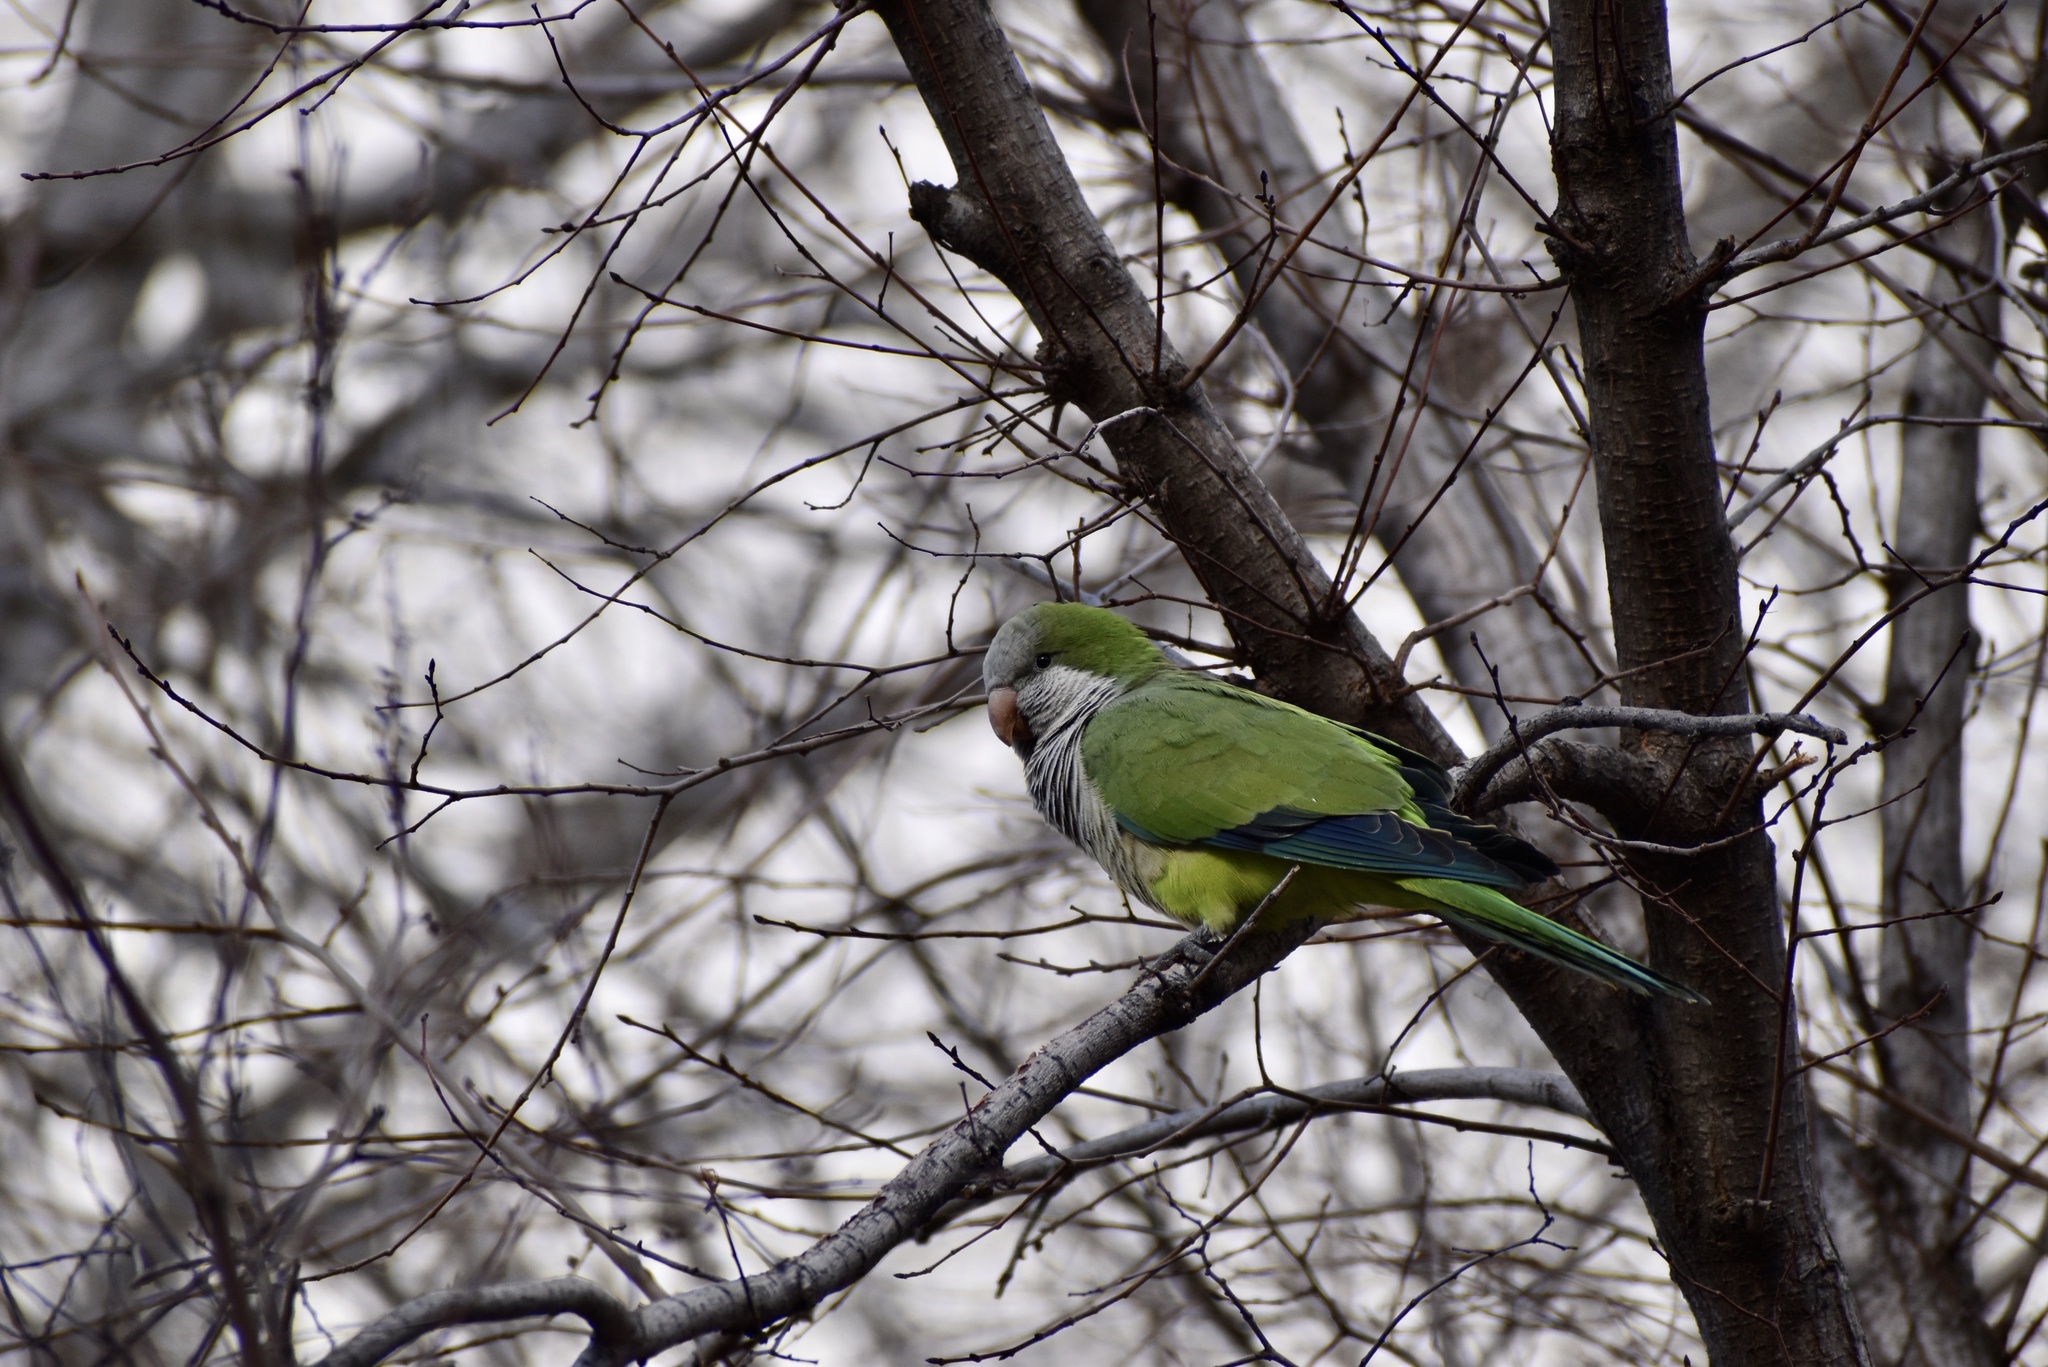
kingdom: Animalia
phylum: Chordata
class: Aves
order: Psittaciformes
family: Psittacidae
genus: Myiopsitta
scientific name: Myiopsitta monachus
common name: Monk parakeet
